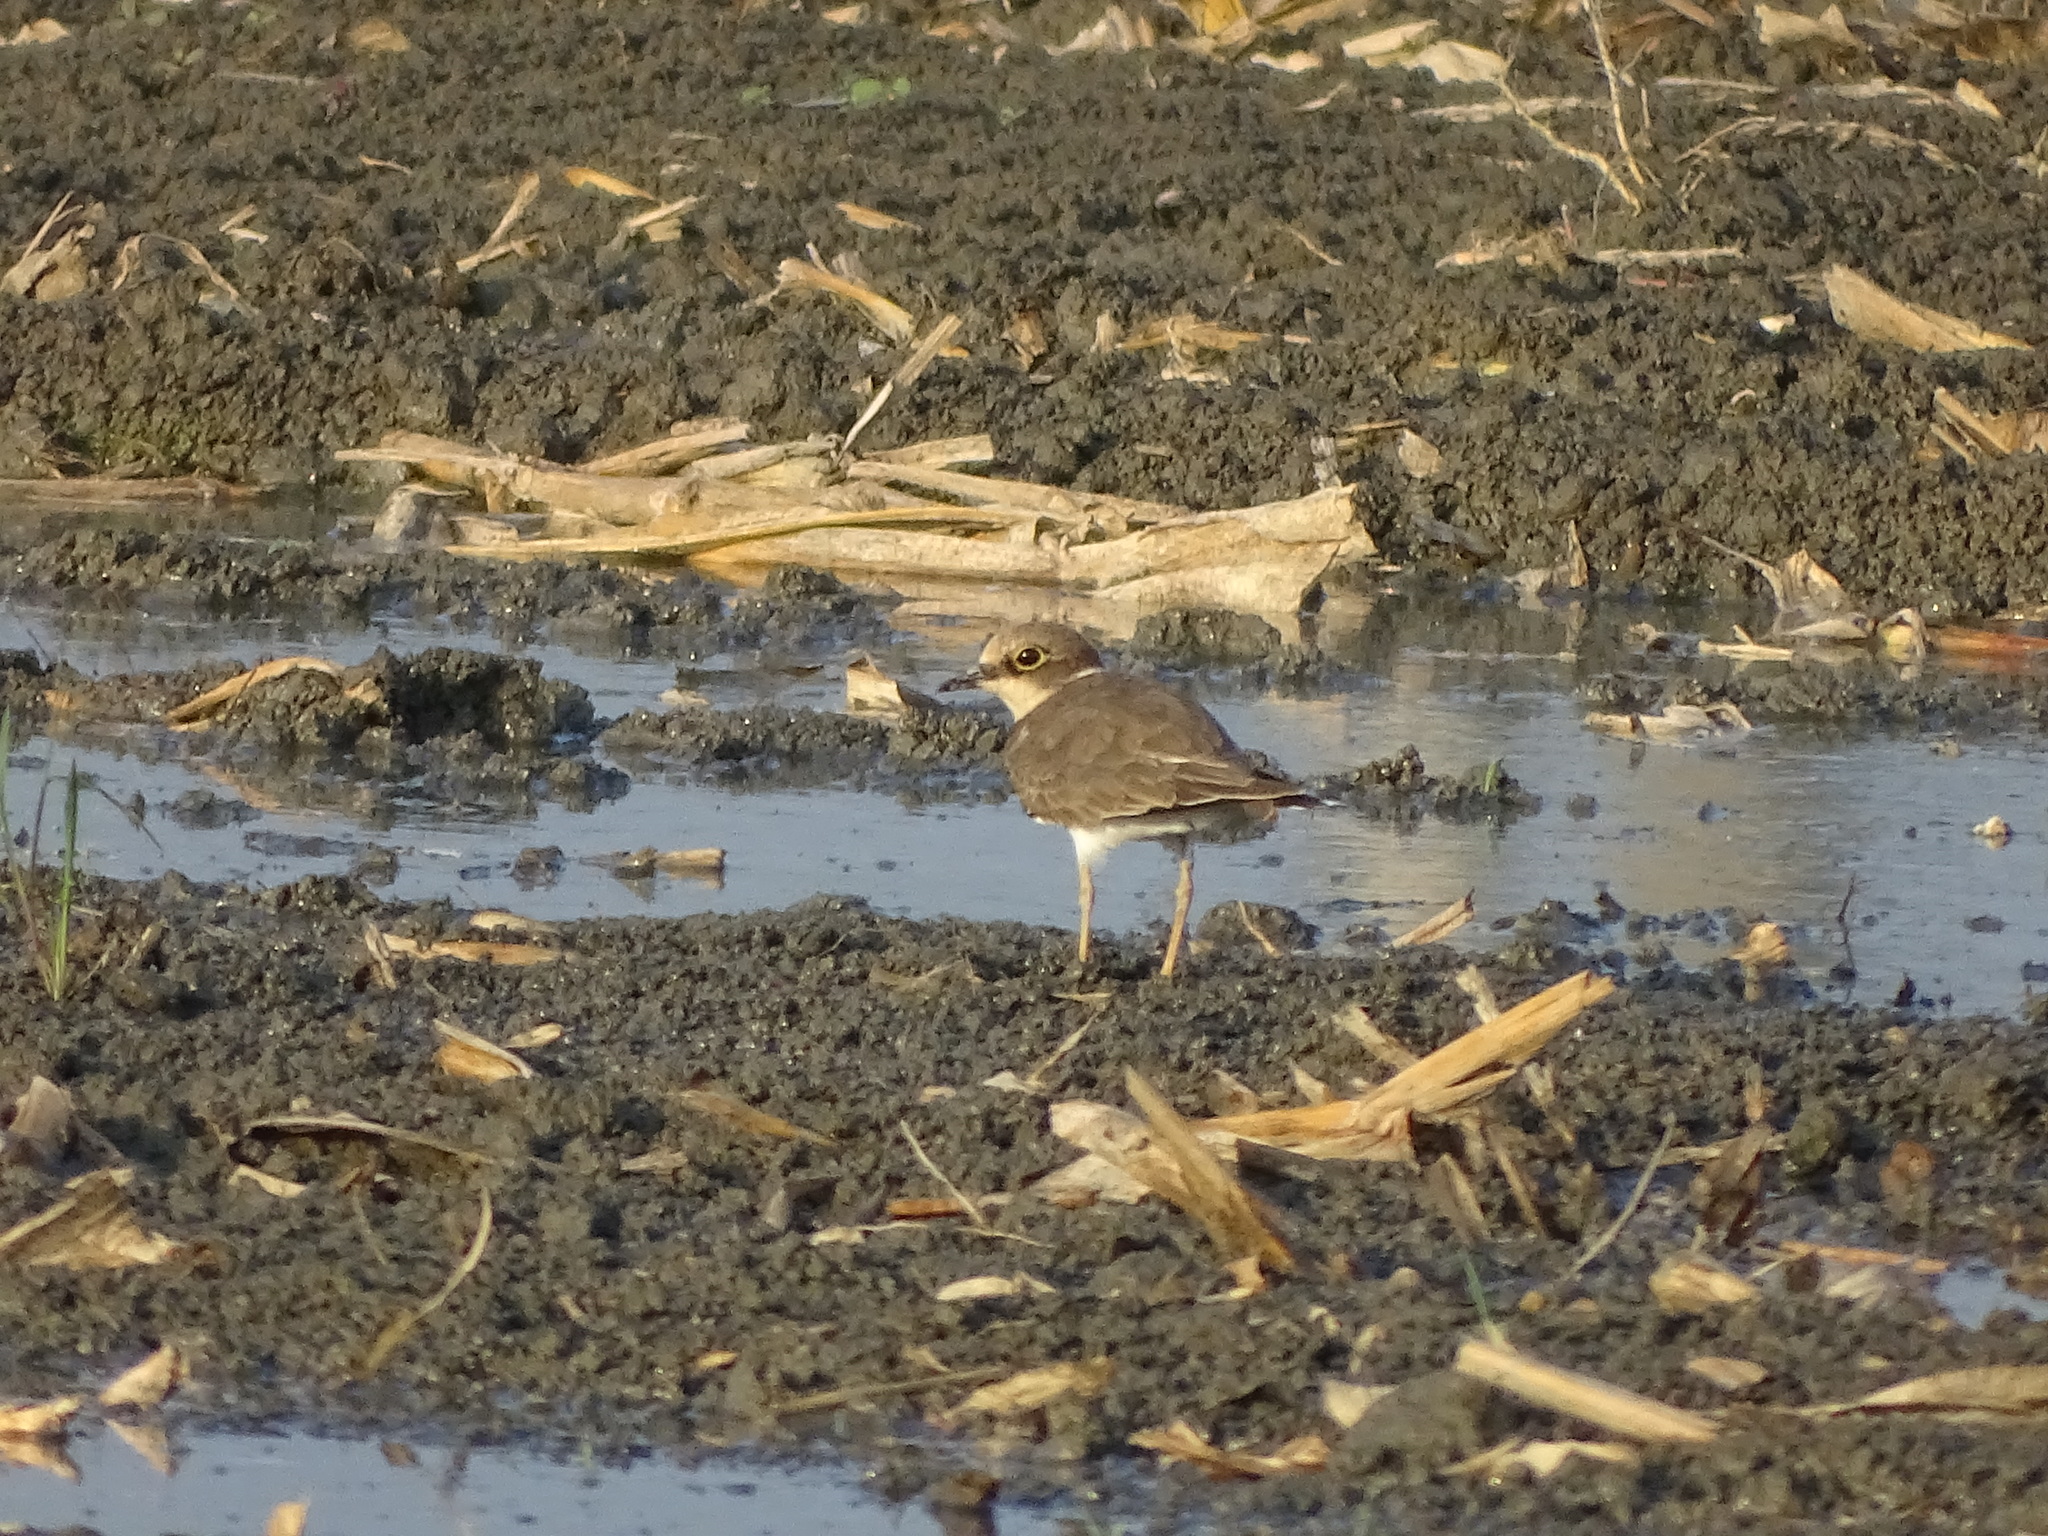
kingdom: Animalia
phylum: Chordata
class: Aves
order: Charadriiformes
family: Charadriidae
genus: Charadrius
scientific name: Charadrius dubius
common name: Little ringed plover
